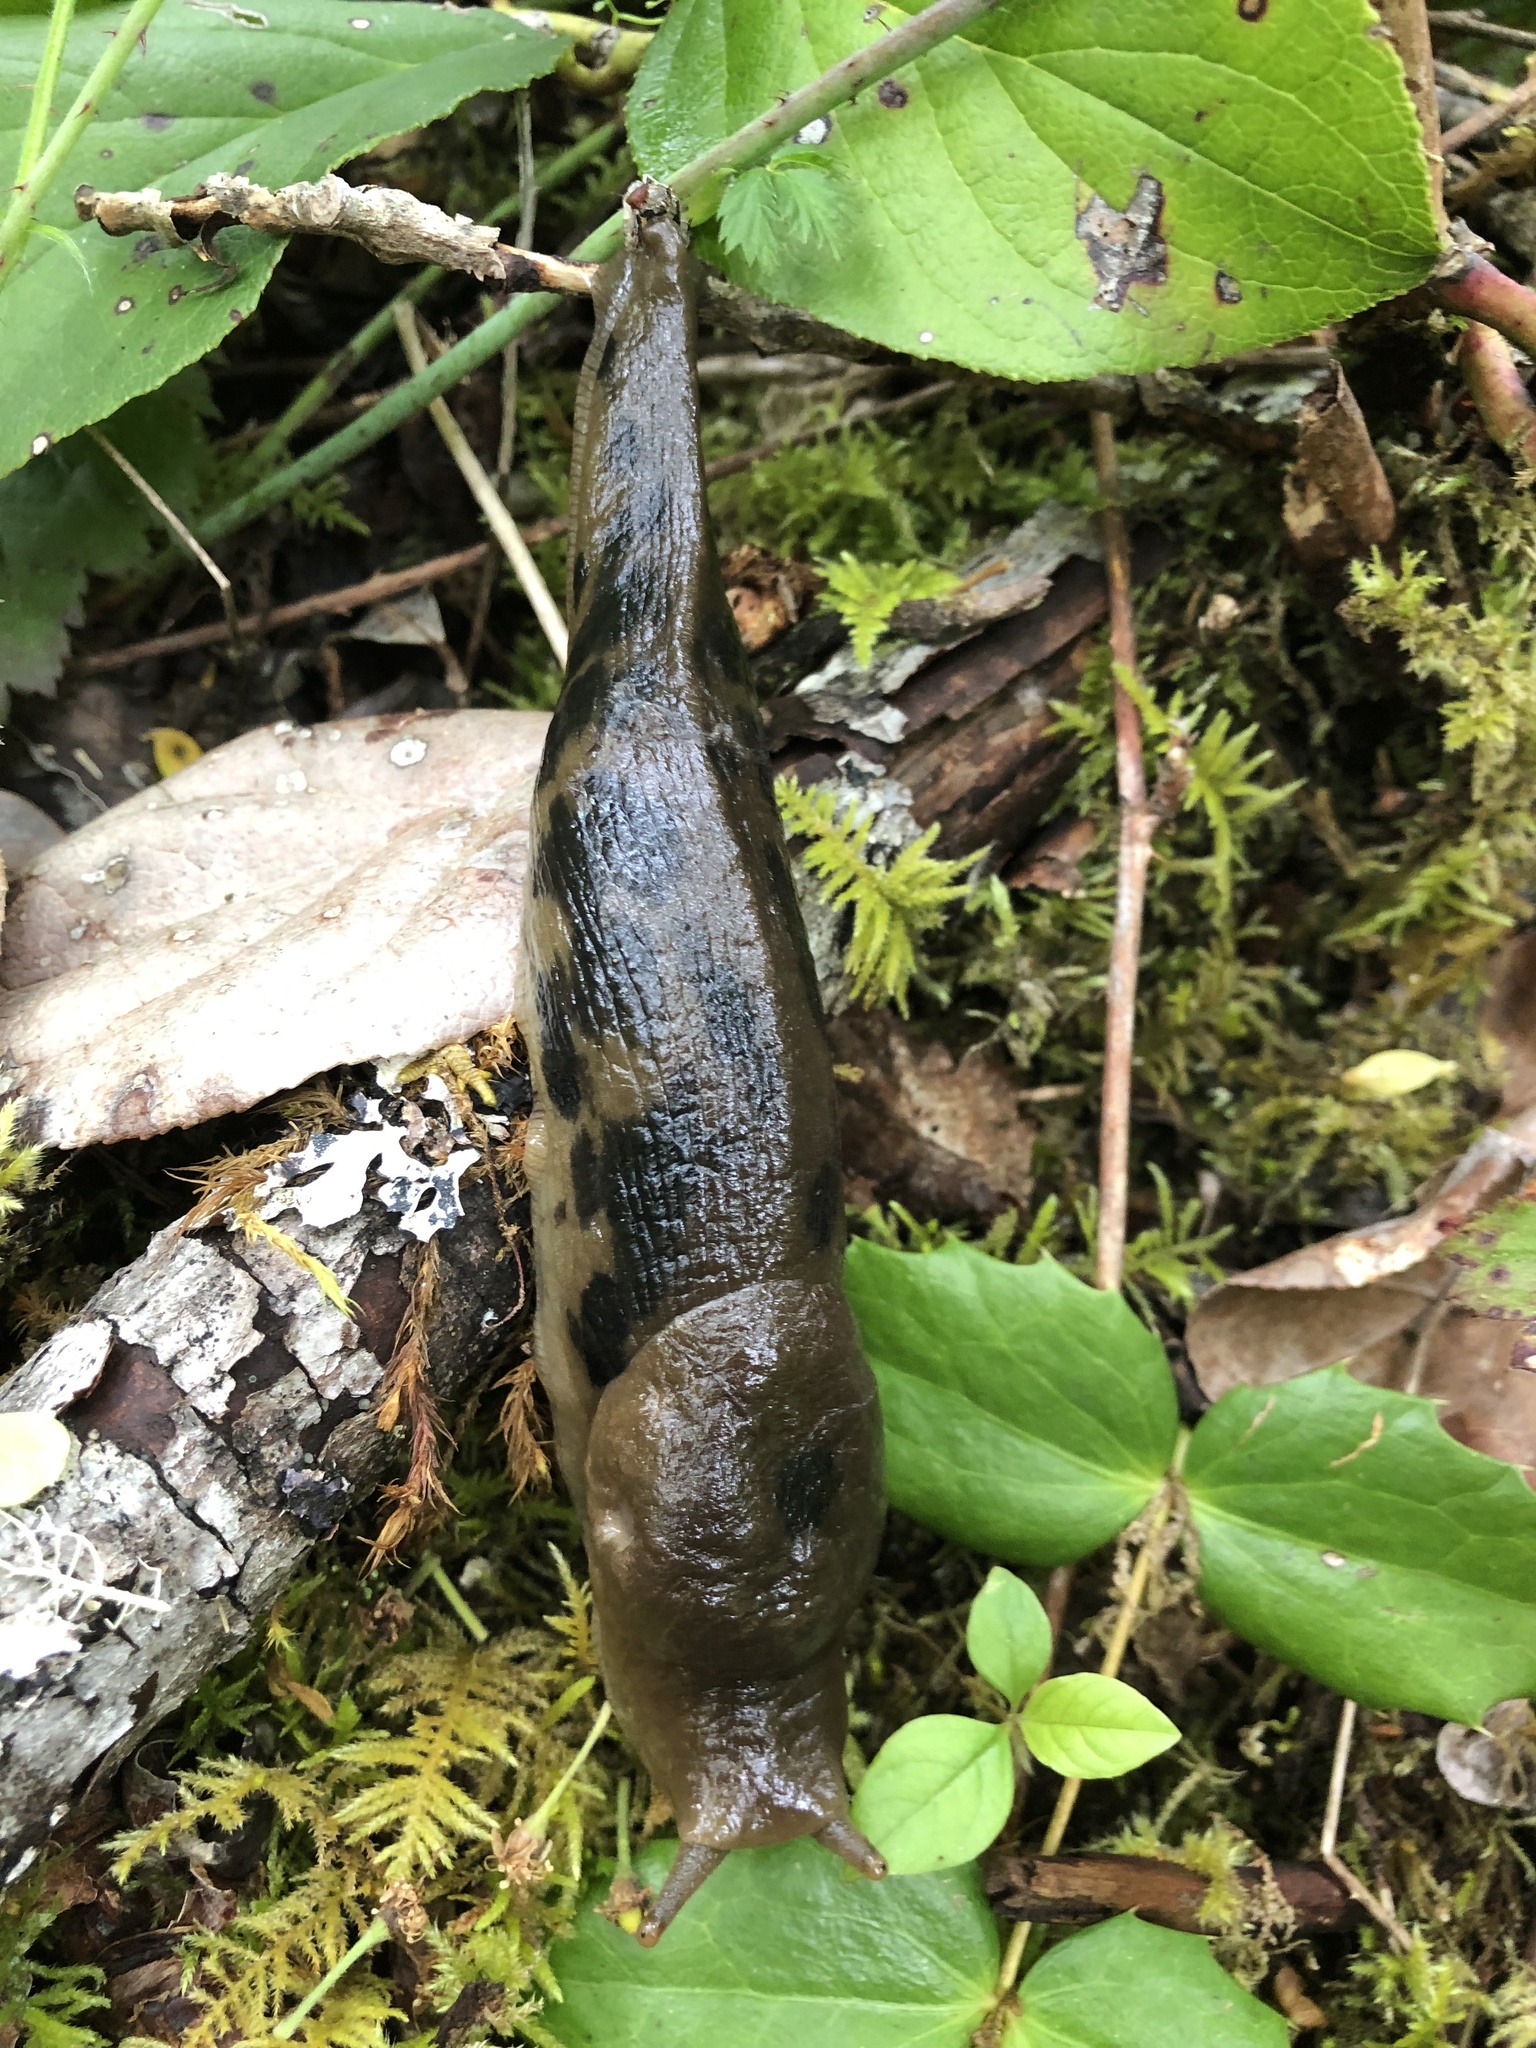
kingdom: Animalia
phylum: Mollusca
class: Gastropoda
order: Stylommatophora
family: Ariolimacidae
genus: Ariolimax
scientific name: Ariolimax columbianus
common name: Pacific banana slug
